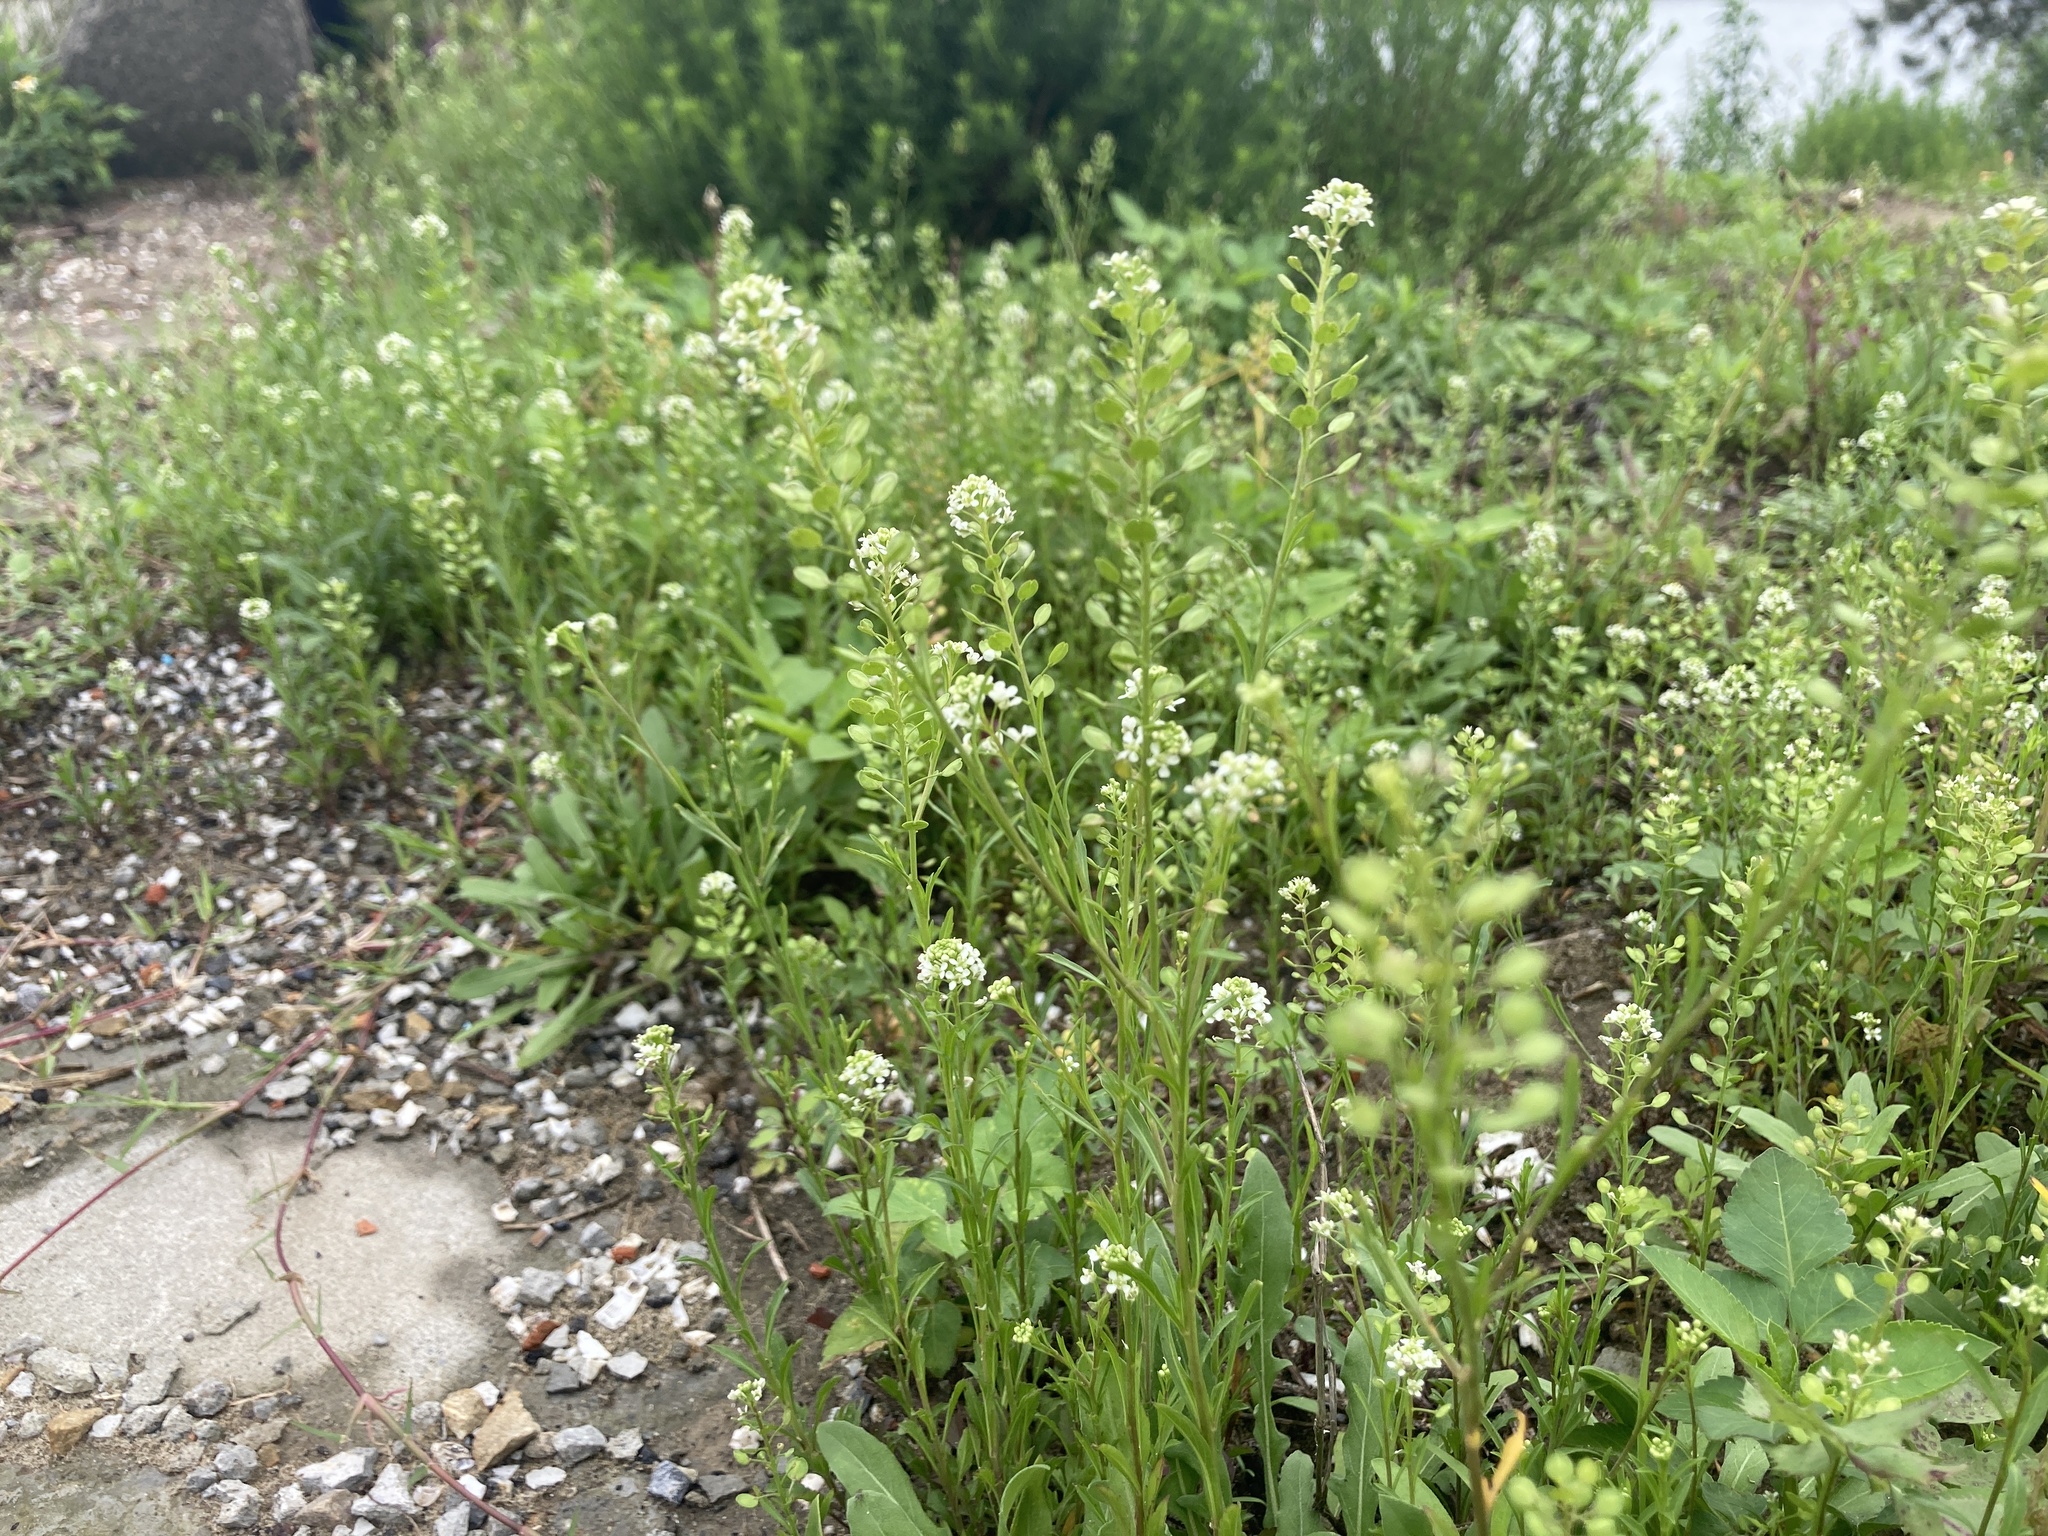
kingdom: Plantae
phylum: Tracheophyta
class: Magnoliopsida
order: Brassicales
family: Brassicaceae
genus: Lepidium
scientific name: Lepidium virginicum
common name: Least pepperwort
